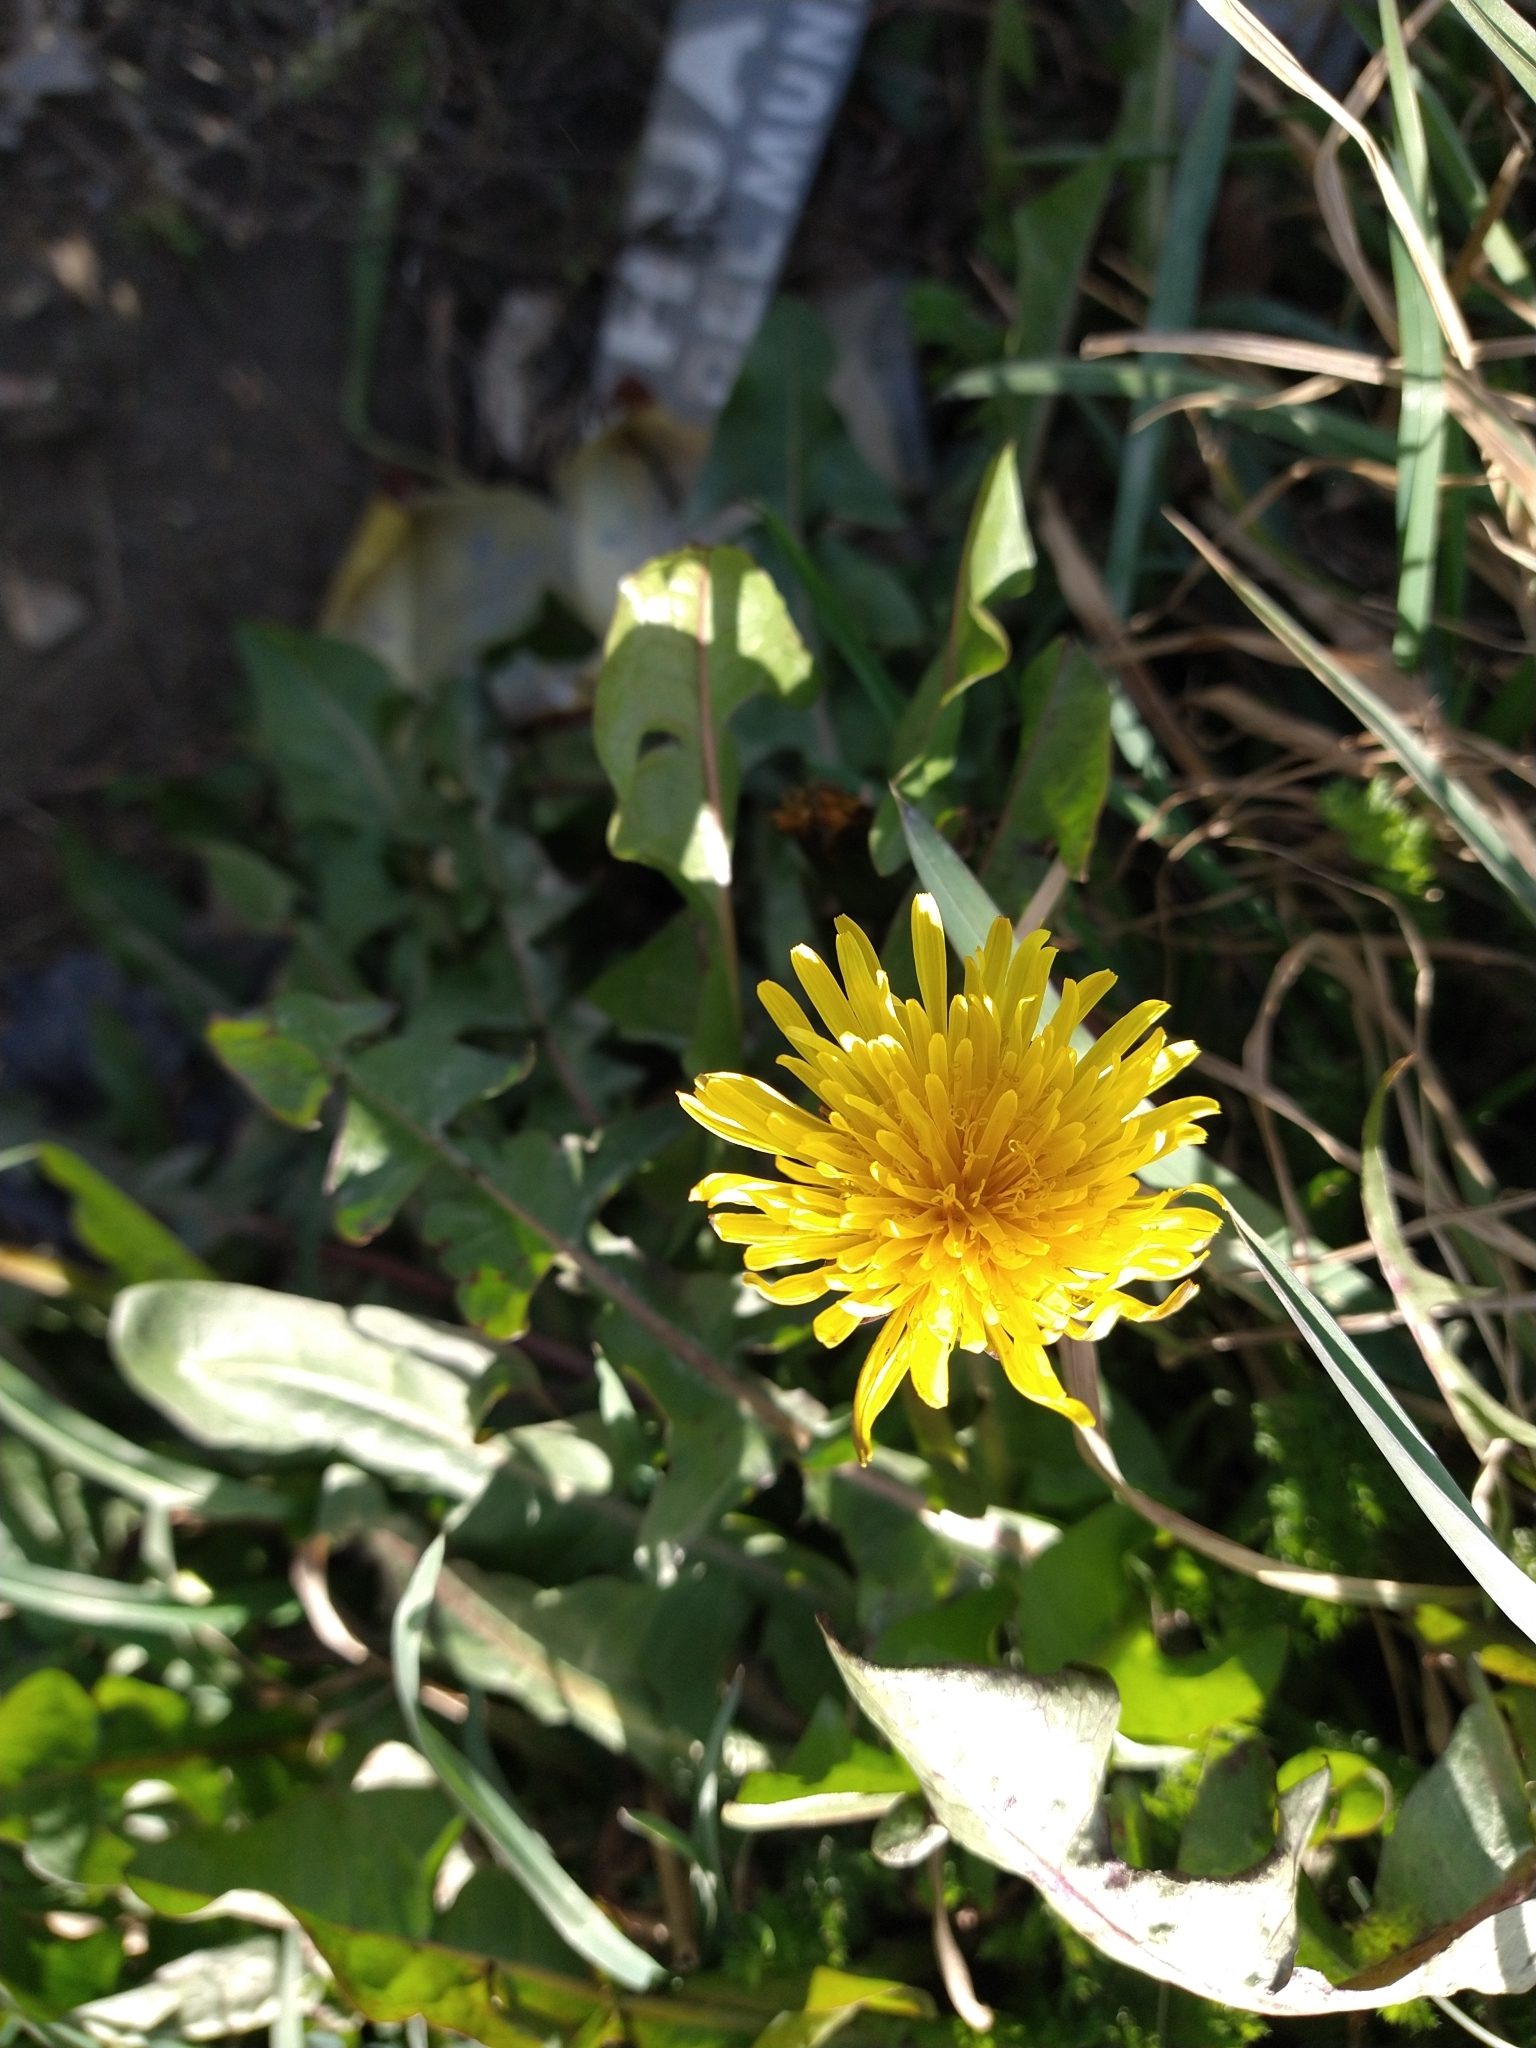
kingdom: Plantae
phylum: Tracheophyta
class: Magnoliopsida
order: Asterales
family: Asteraceae
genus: Taraxacum
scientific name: Taraxacum officinale
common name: Common dandelion
